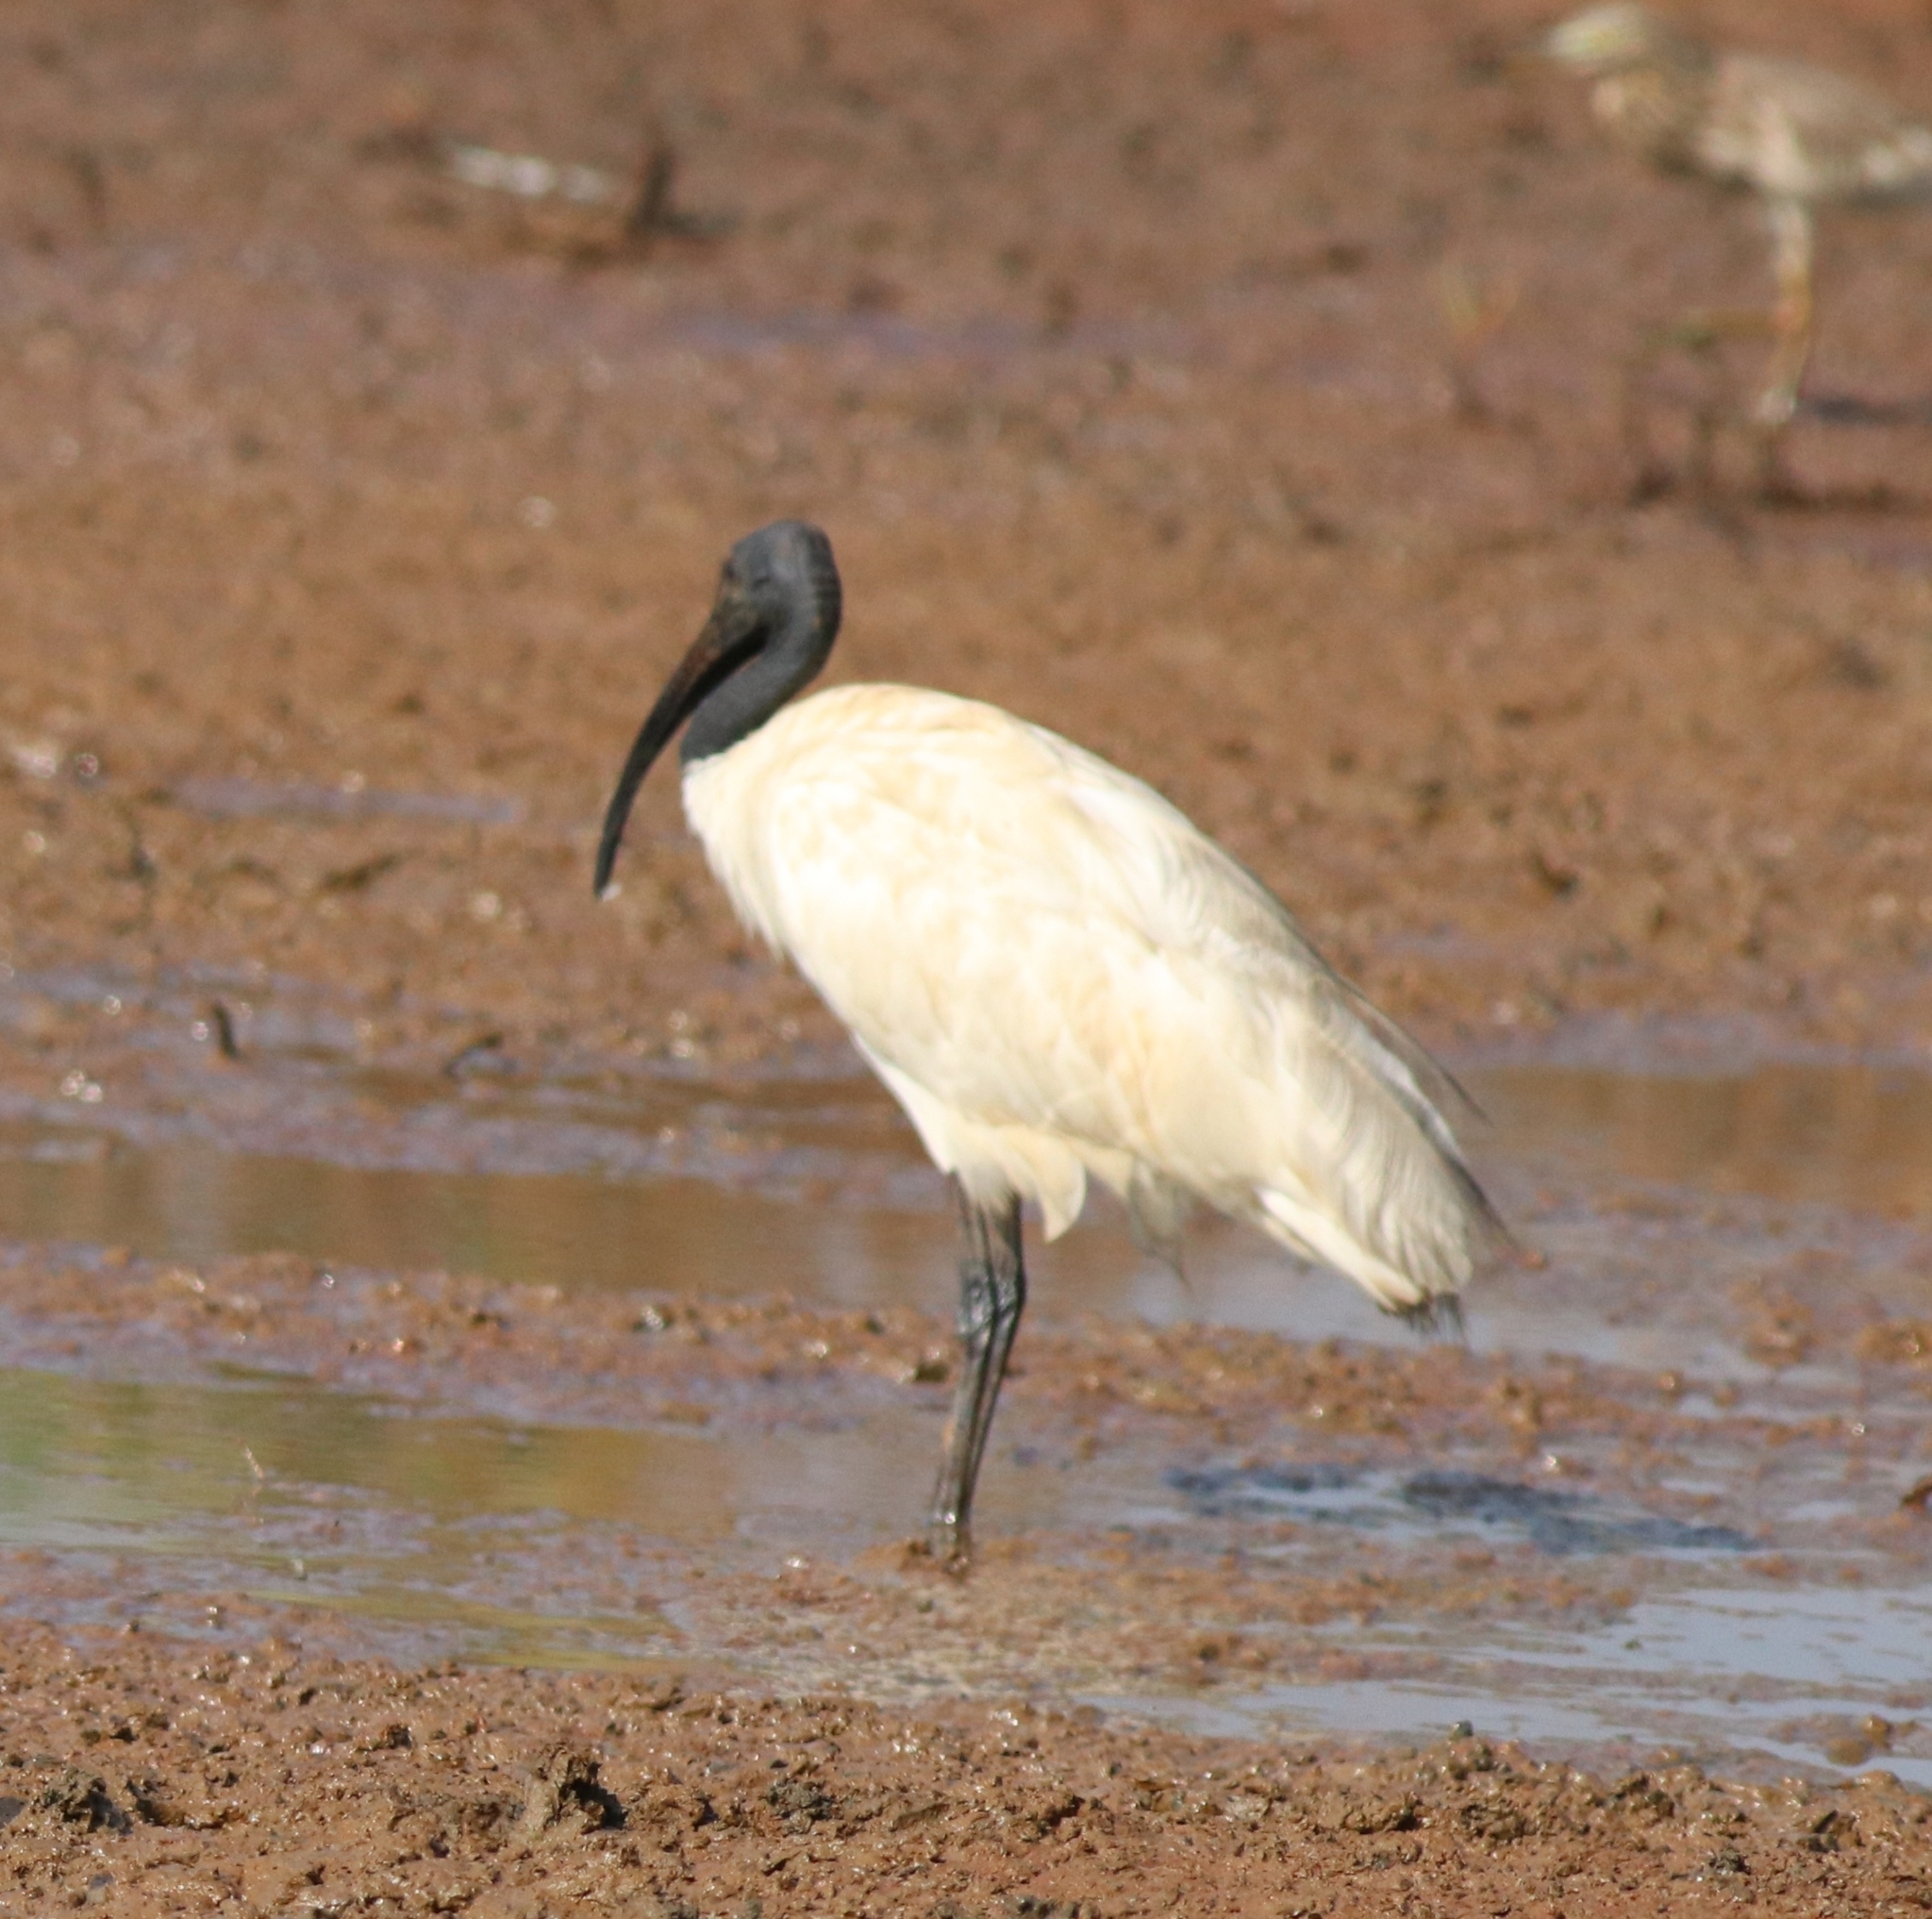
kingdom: Animalia
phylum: Chordata
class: Aves
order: Pelecaniformes
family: Threskiornithidae
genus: Threskiornis
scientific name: Threskiornis melanocephalus
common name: Black-headed ibis
